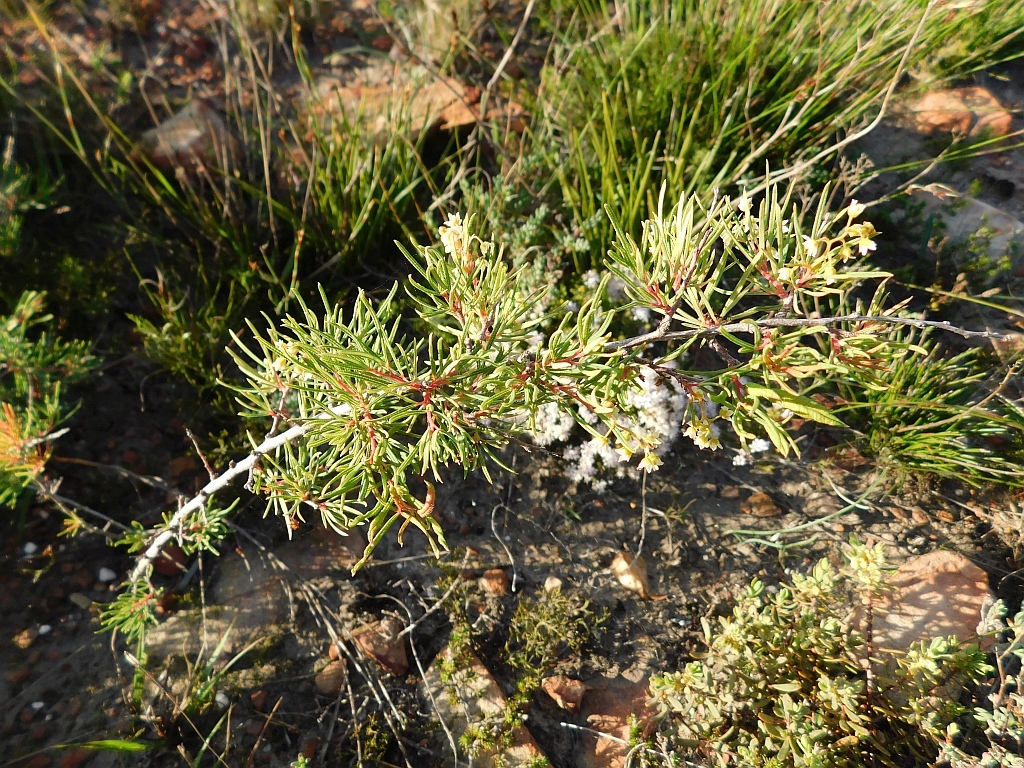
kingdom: Plantae
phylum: Tracheophyta
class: Magnoliopsida
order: Sapindales
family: Anacardiaceae
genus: Searsia
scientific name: Searsia rosmarinifolia
